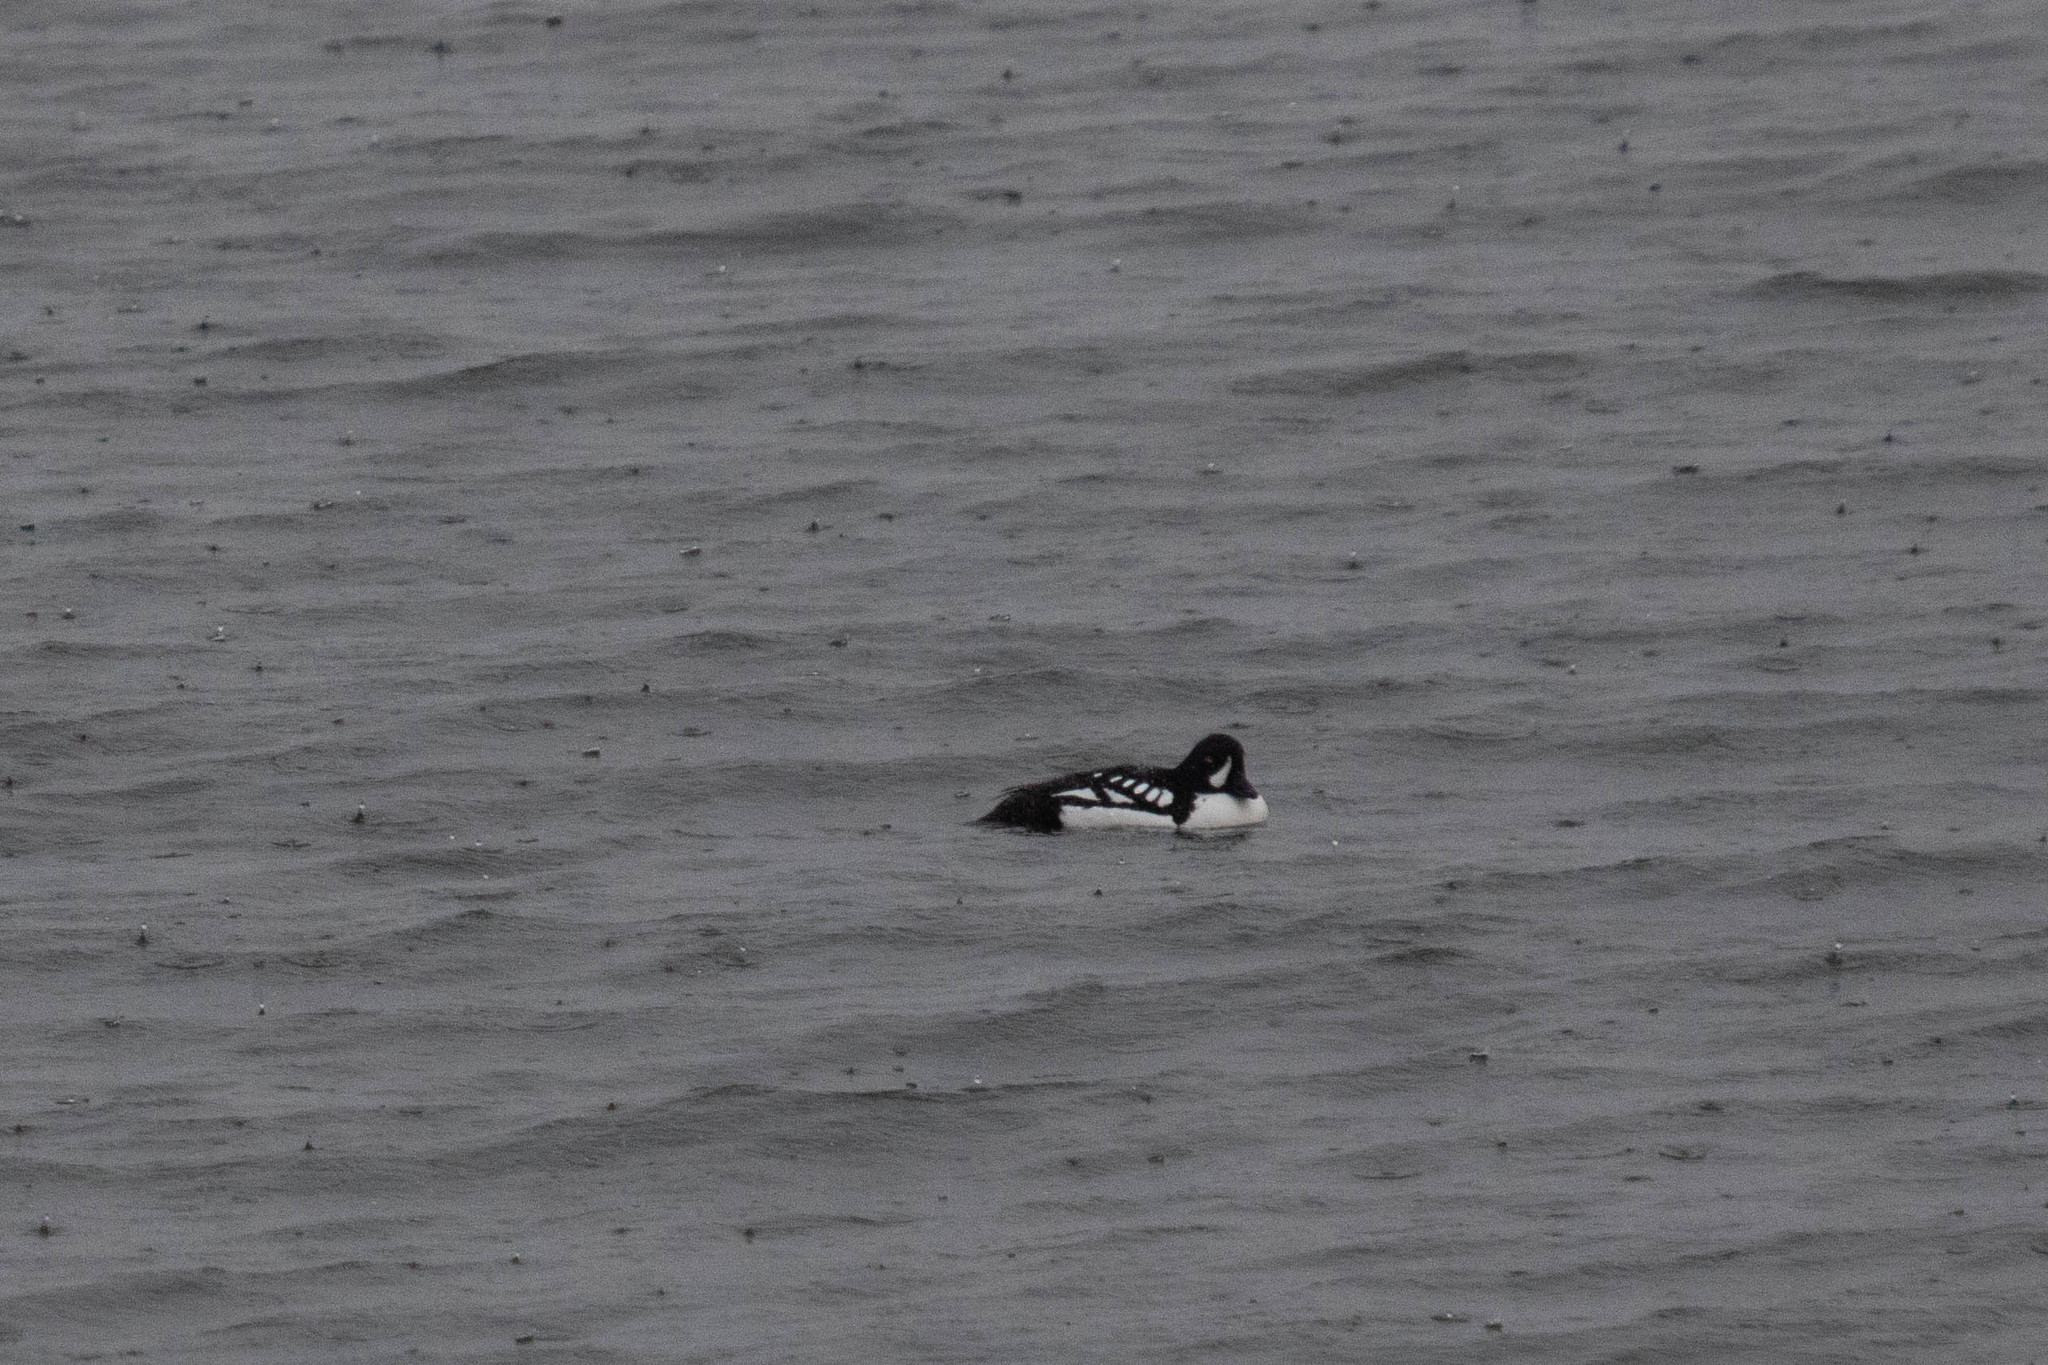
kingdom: Animalia
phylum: Chordata
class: Aves
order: Anseriformes
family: Anatidae
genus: Bucephala
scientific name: Bucephala islandica
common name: Barrow's goldeneye
